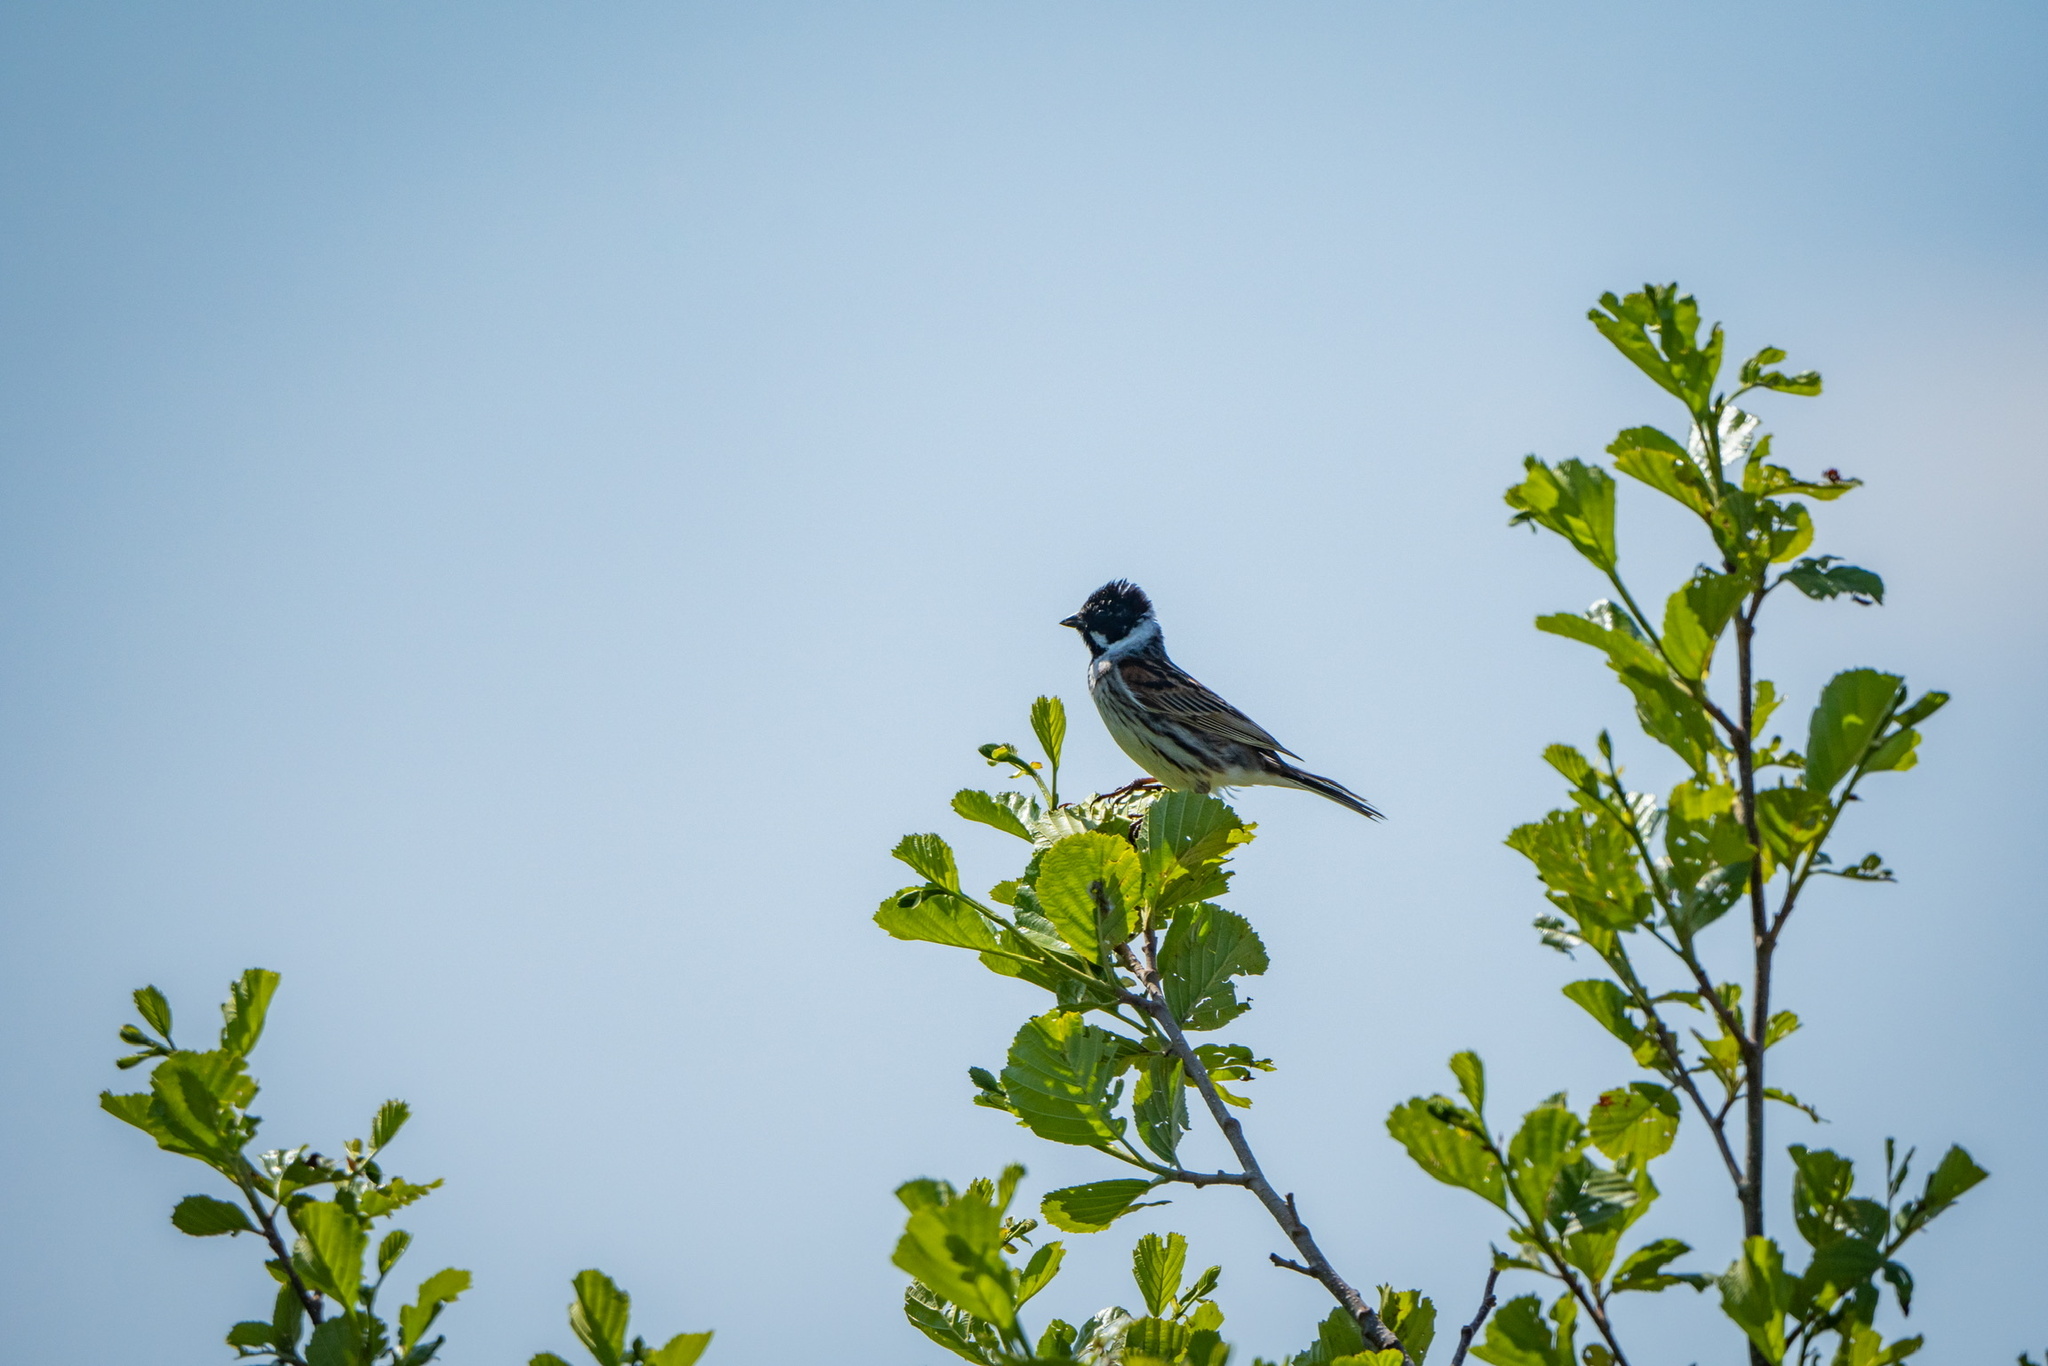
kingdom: Animalia
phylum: Chordata
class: Aves
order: Passeriformes
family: Emberizidae
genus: Emberiza
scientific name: Emberiza schoeniclus
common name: Reed bunting
